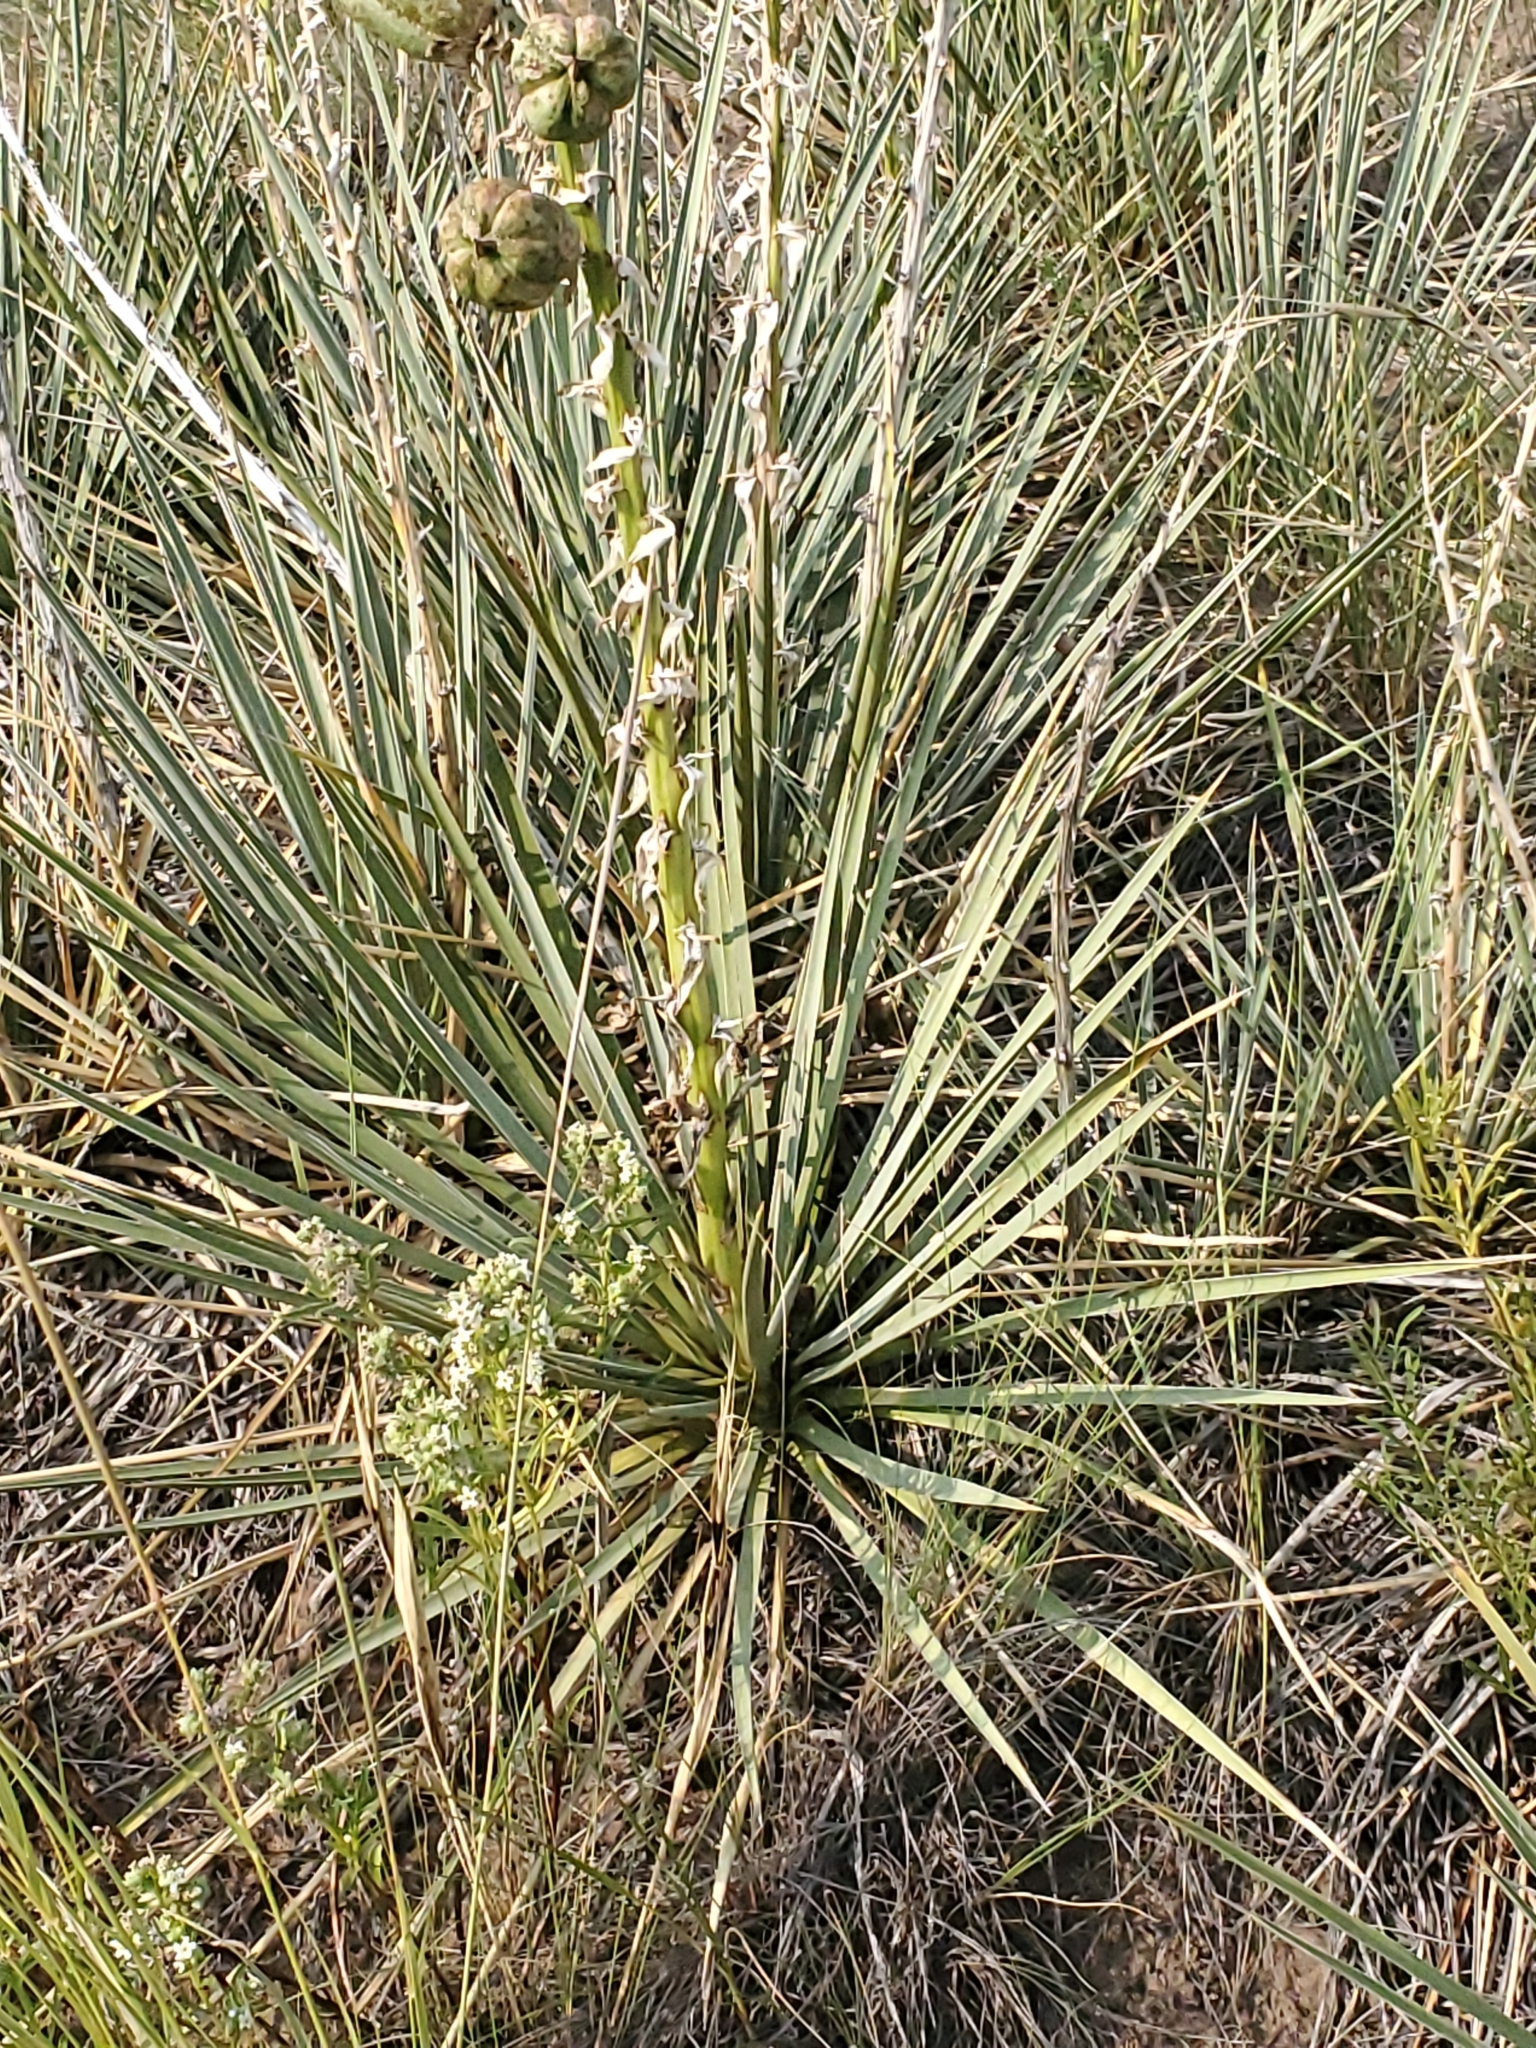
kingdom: Plantae
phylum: Tracheophyta
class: Liliopsida
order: Asparagales
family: Asparagaceae
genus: Yucca
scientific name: Yucca glauca
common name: Great plains yucca
